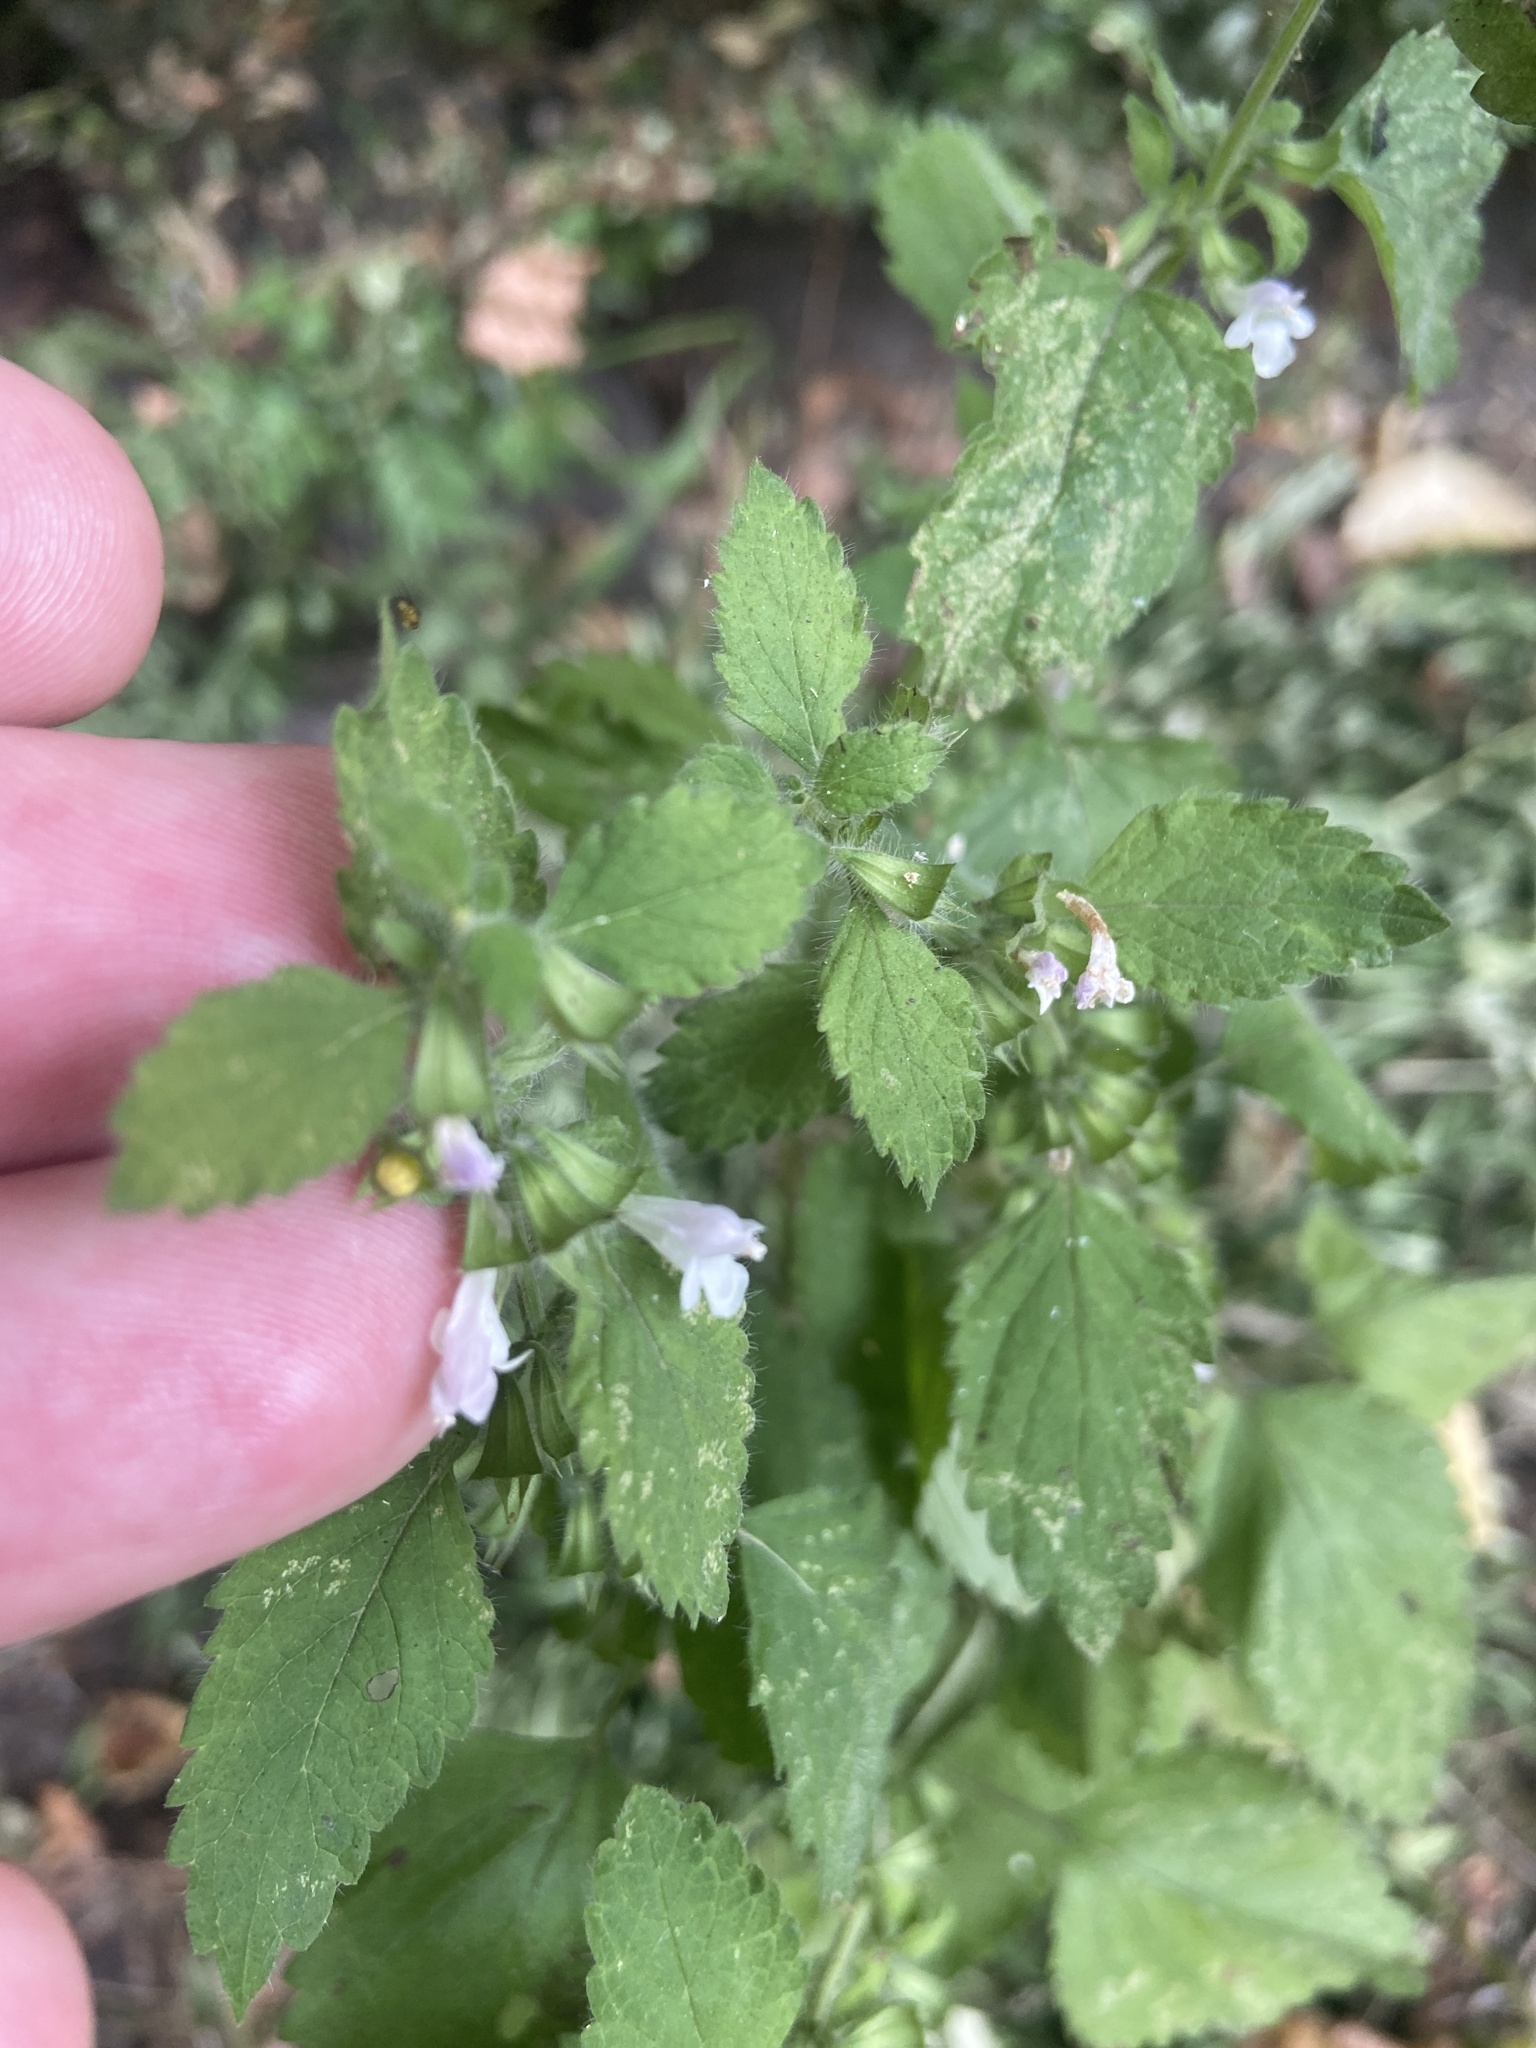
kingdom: Plantae
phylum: Tracheophyta
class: Magnoliopsida
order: Lamiales
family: Lamiaceae
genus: Melissa
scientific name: Melissa officinalis
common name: Balm
